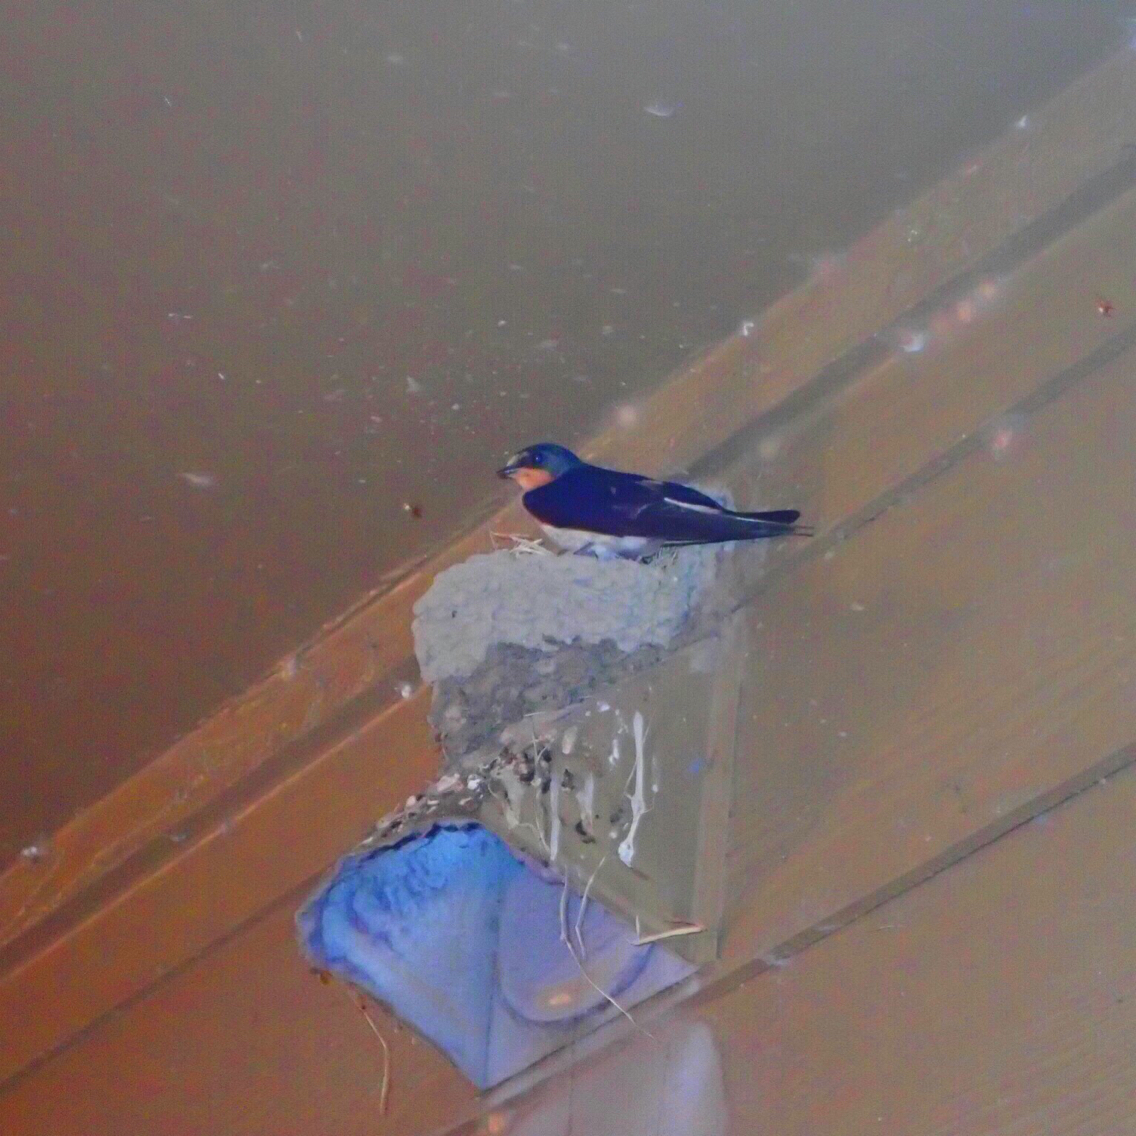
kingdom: Animalia
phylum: Chordata
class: Aves
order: Passeriformes
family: Hirundinidae
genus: Hirundo
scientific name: Hirundo rustica
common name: Barn swallow
